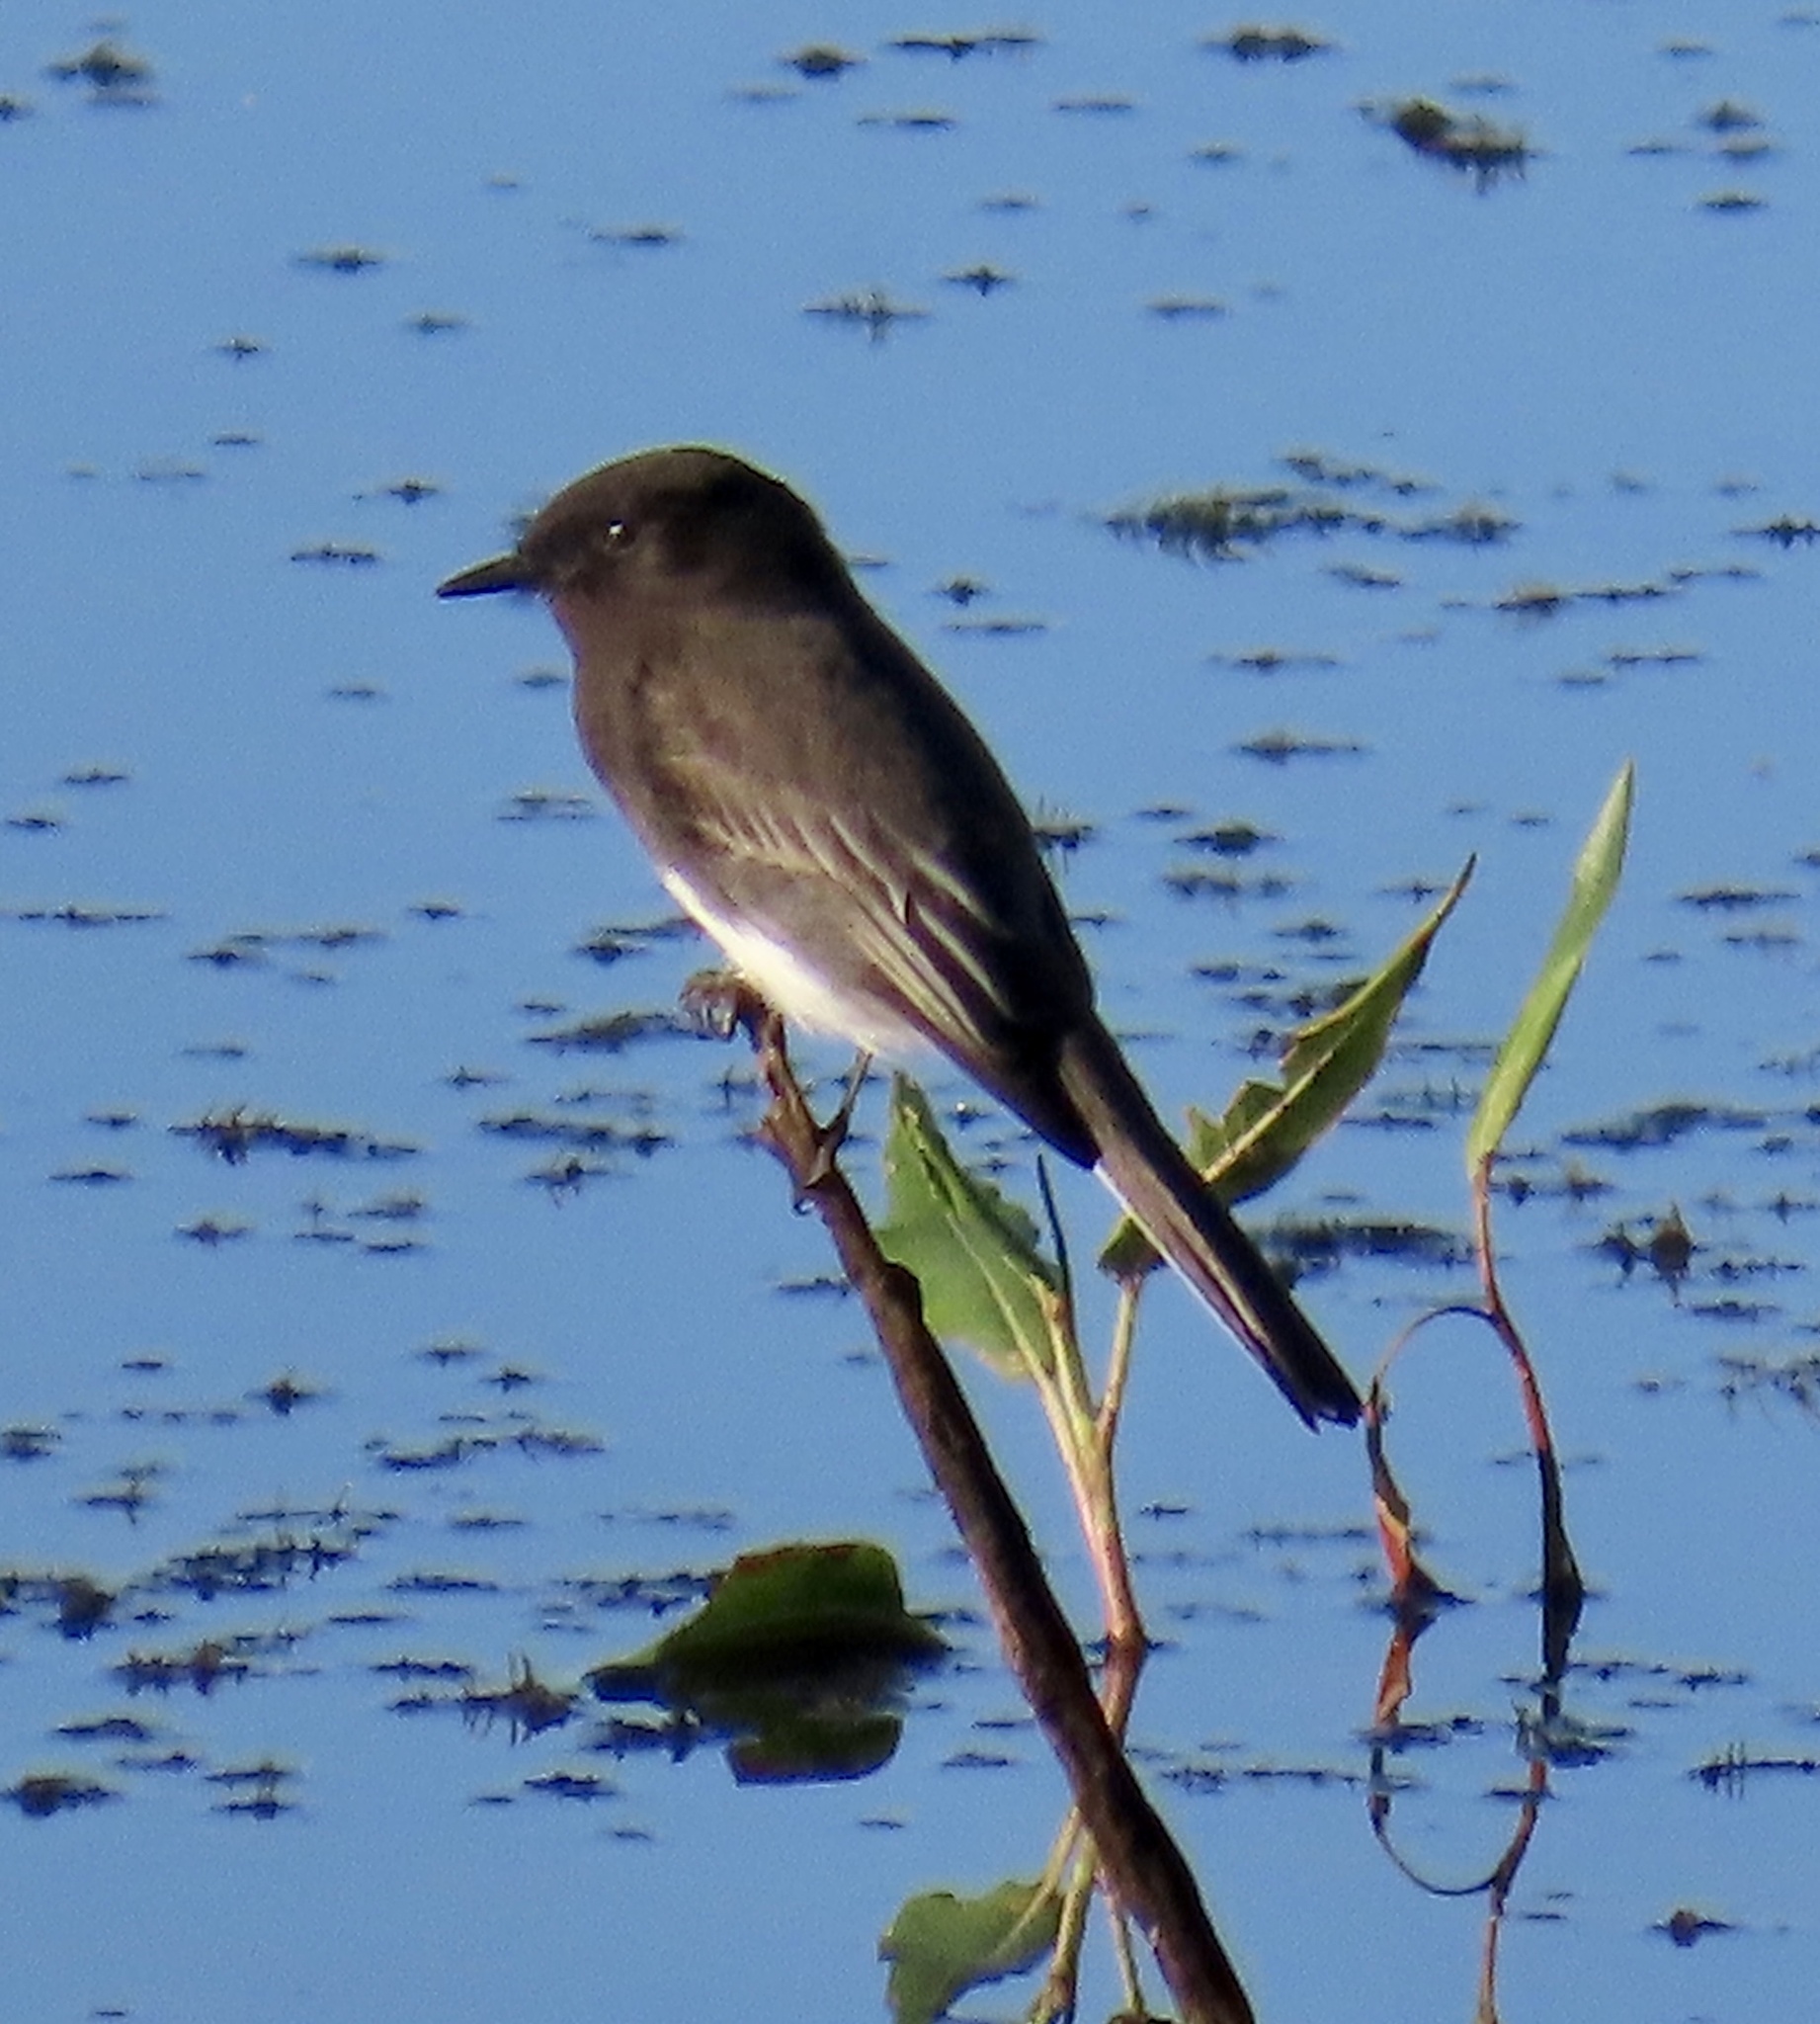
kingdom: Animalia
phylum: Chordata
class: Aves
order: Passeriformes
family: Tyrannidae
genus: Sayornis
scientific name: Sayornis nigricans
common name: Black phoebe
